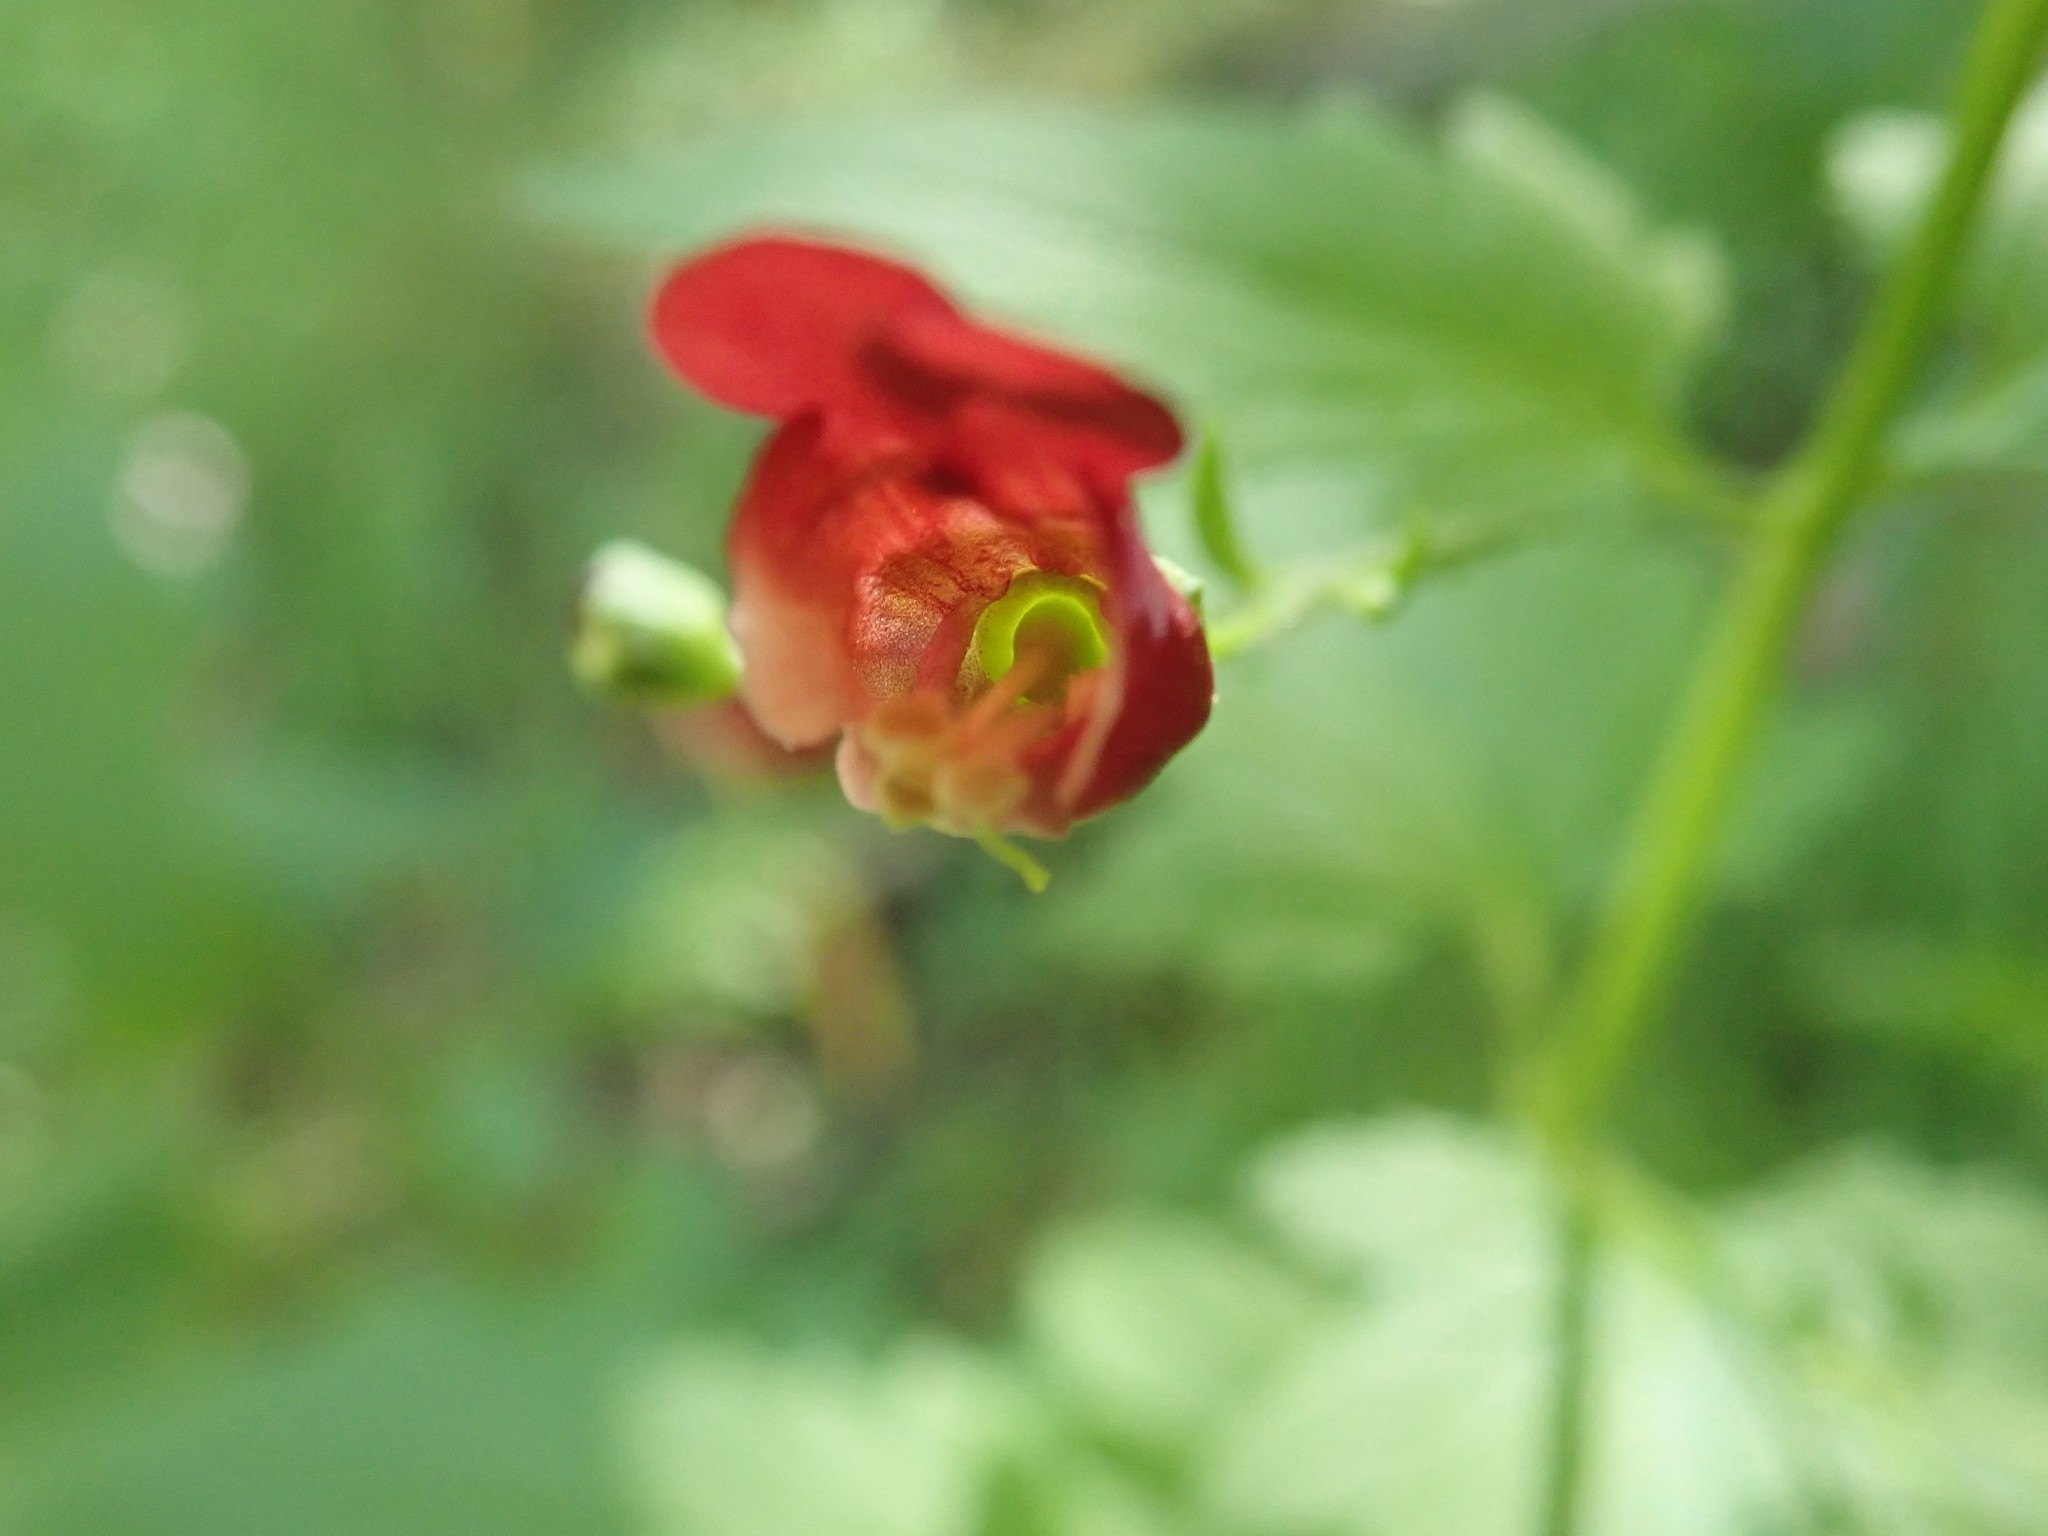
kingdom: Plantae
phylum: Tracheophyta
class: Magnoliopsida
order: Lamiales
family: Scrophulariaceae
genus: Scrophularia
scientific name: Scrophularia californica
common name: California figwort
